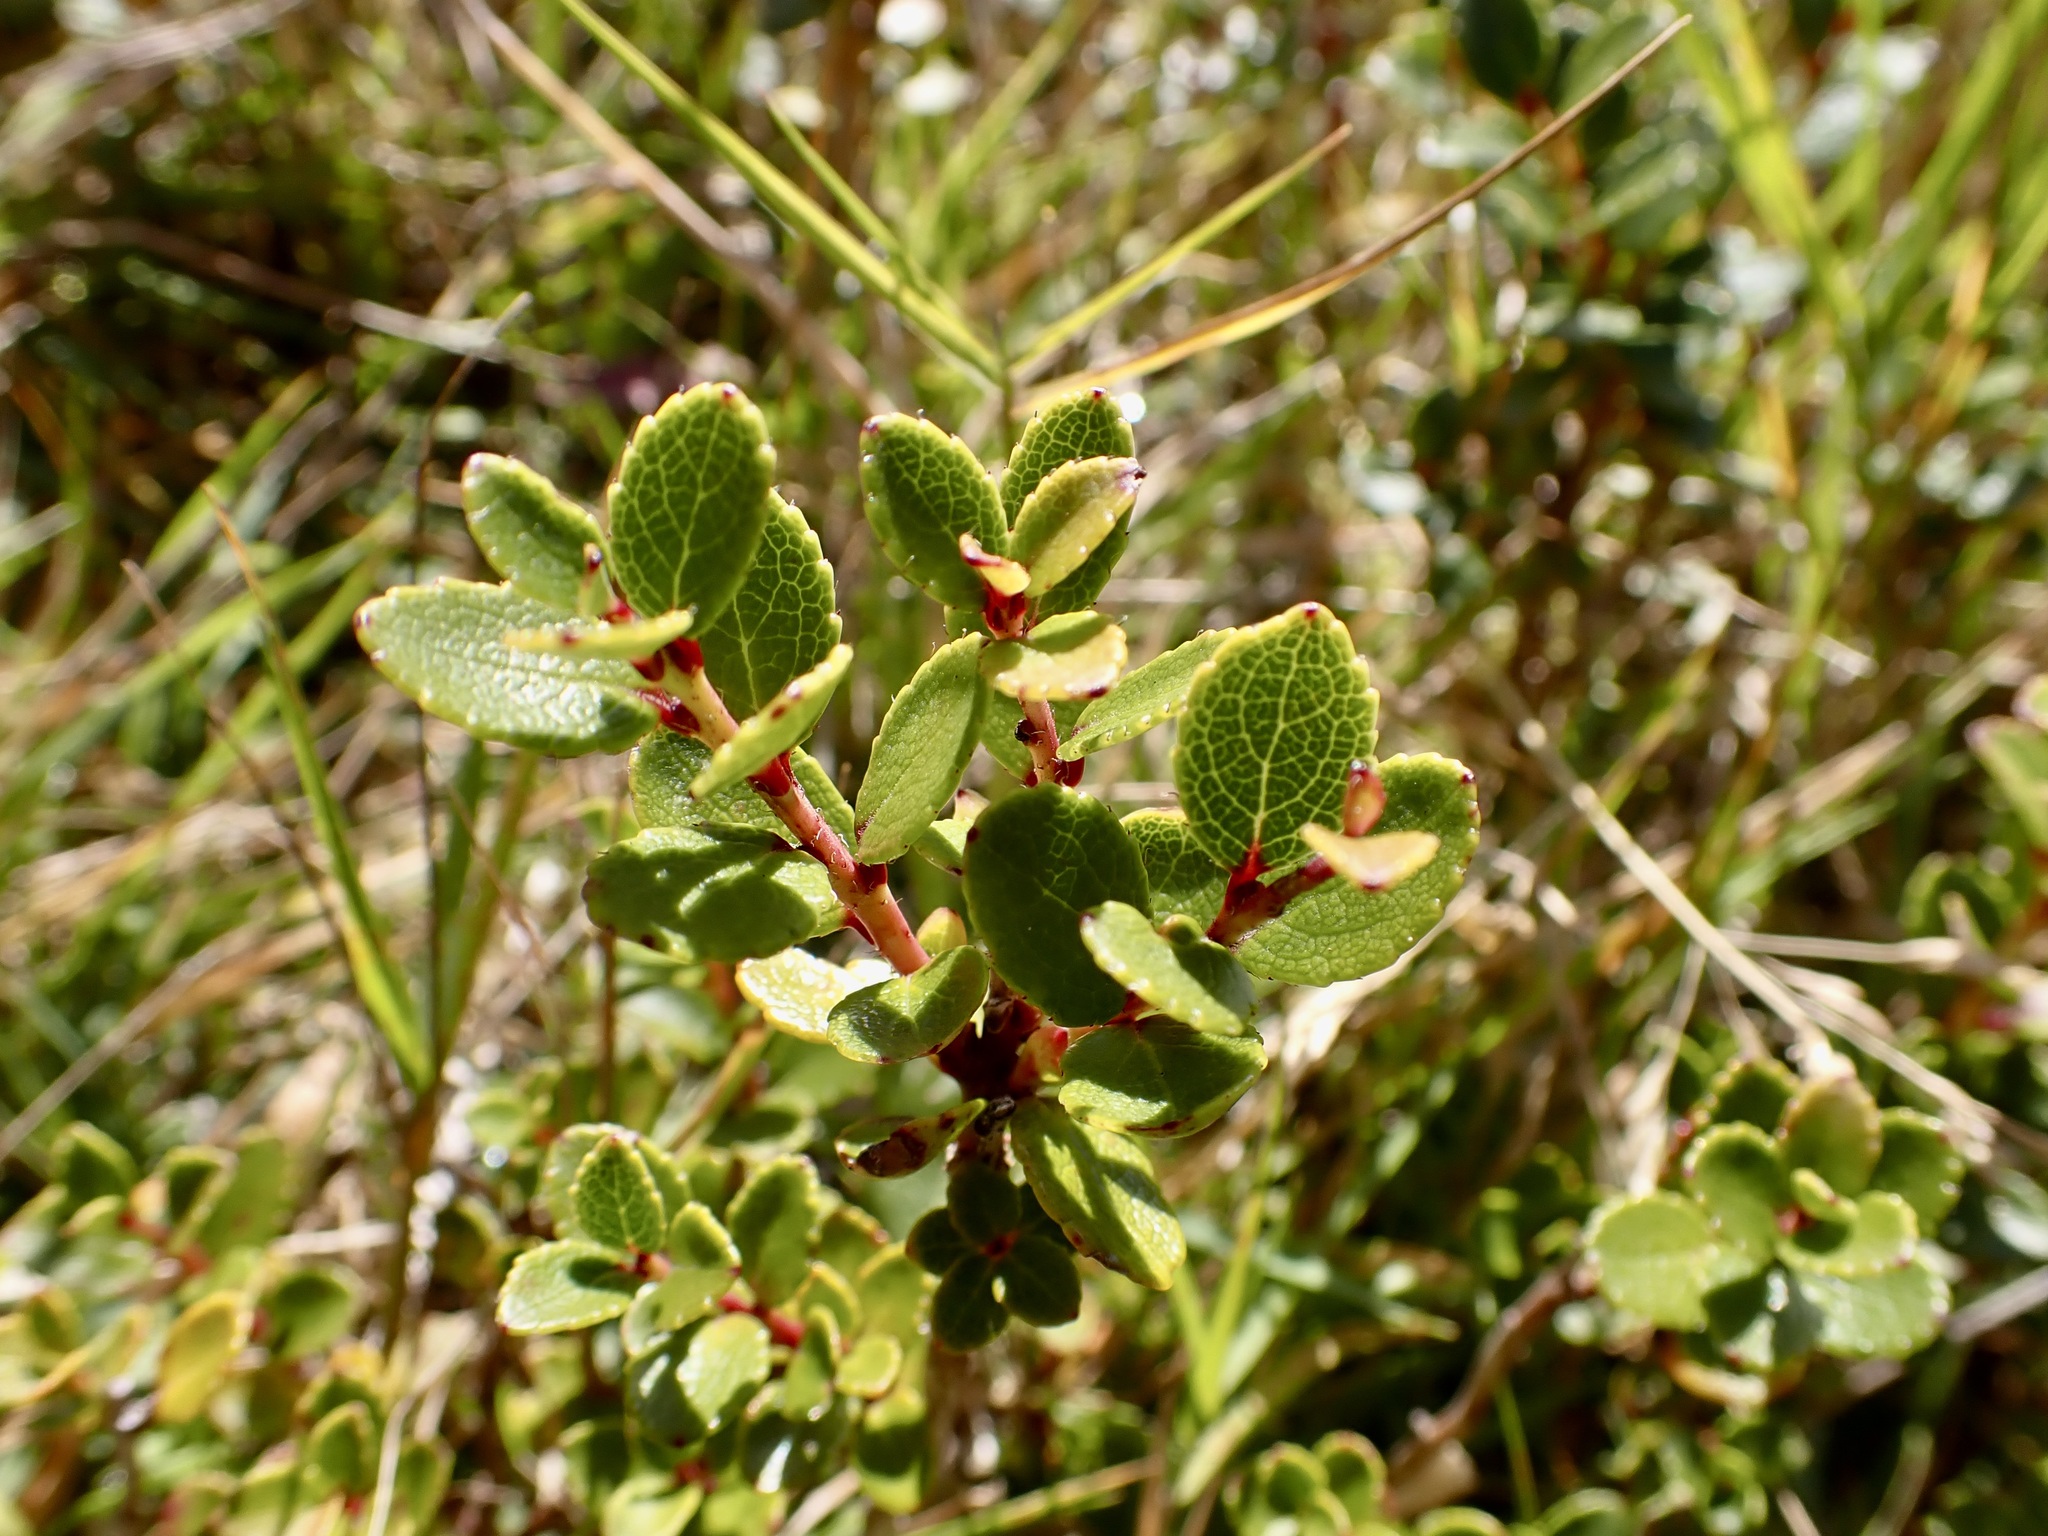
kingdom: Plantae
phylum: Tracheophyta
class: Magnoliopsida
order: Ericales
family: Ericaceae
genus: Gaultheria
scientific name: Gaultheria crassa
